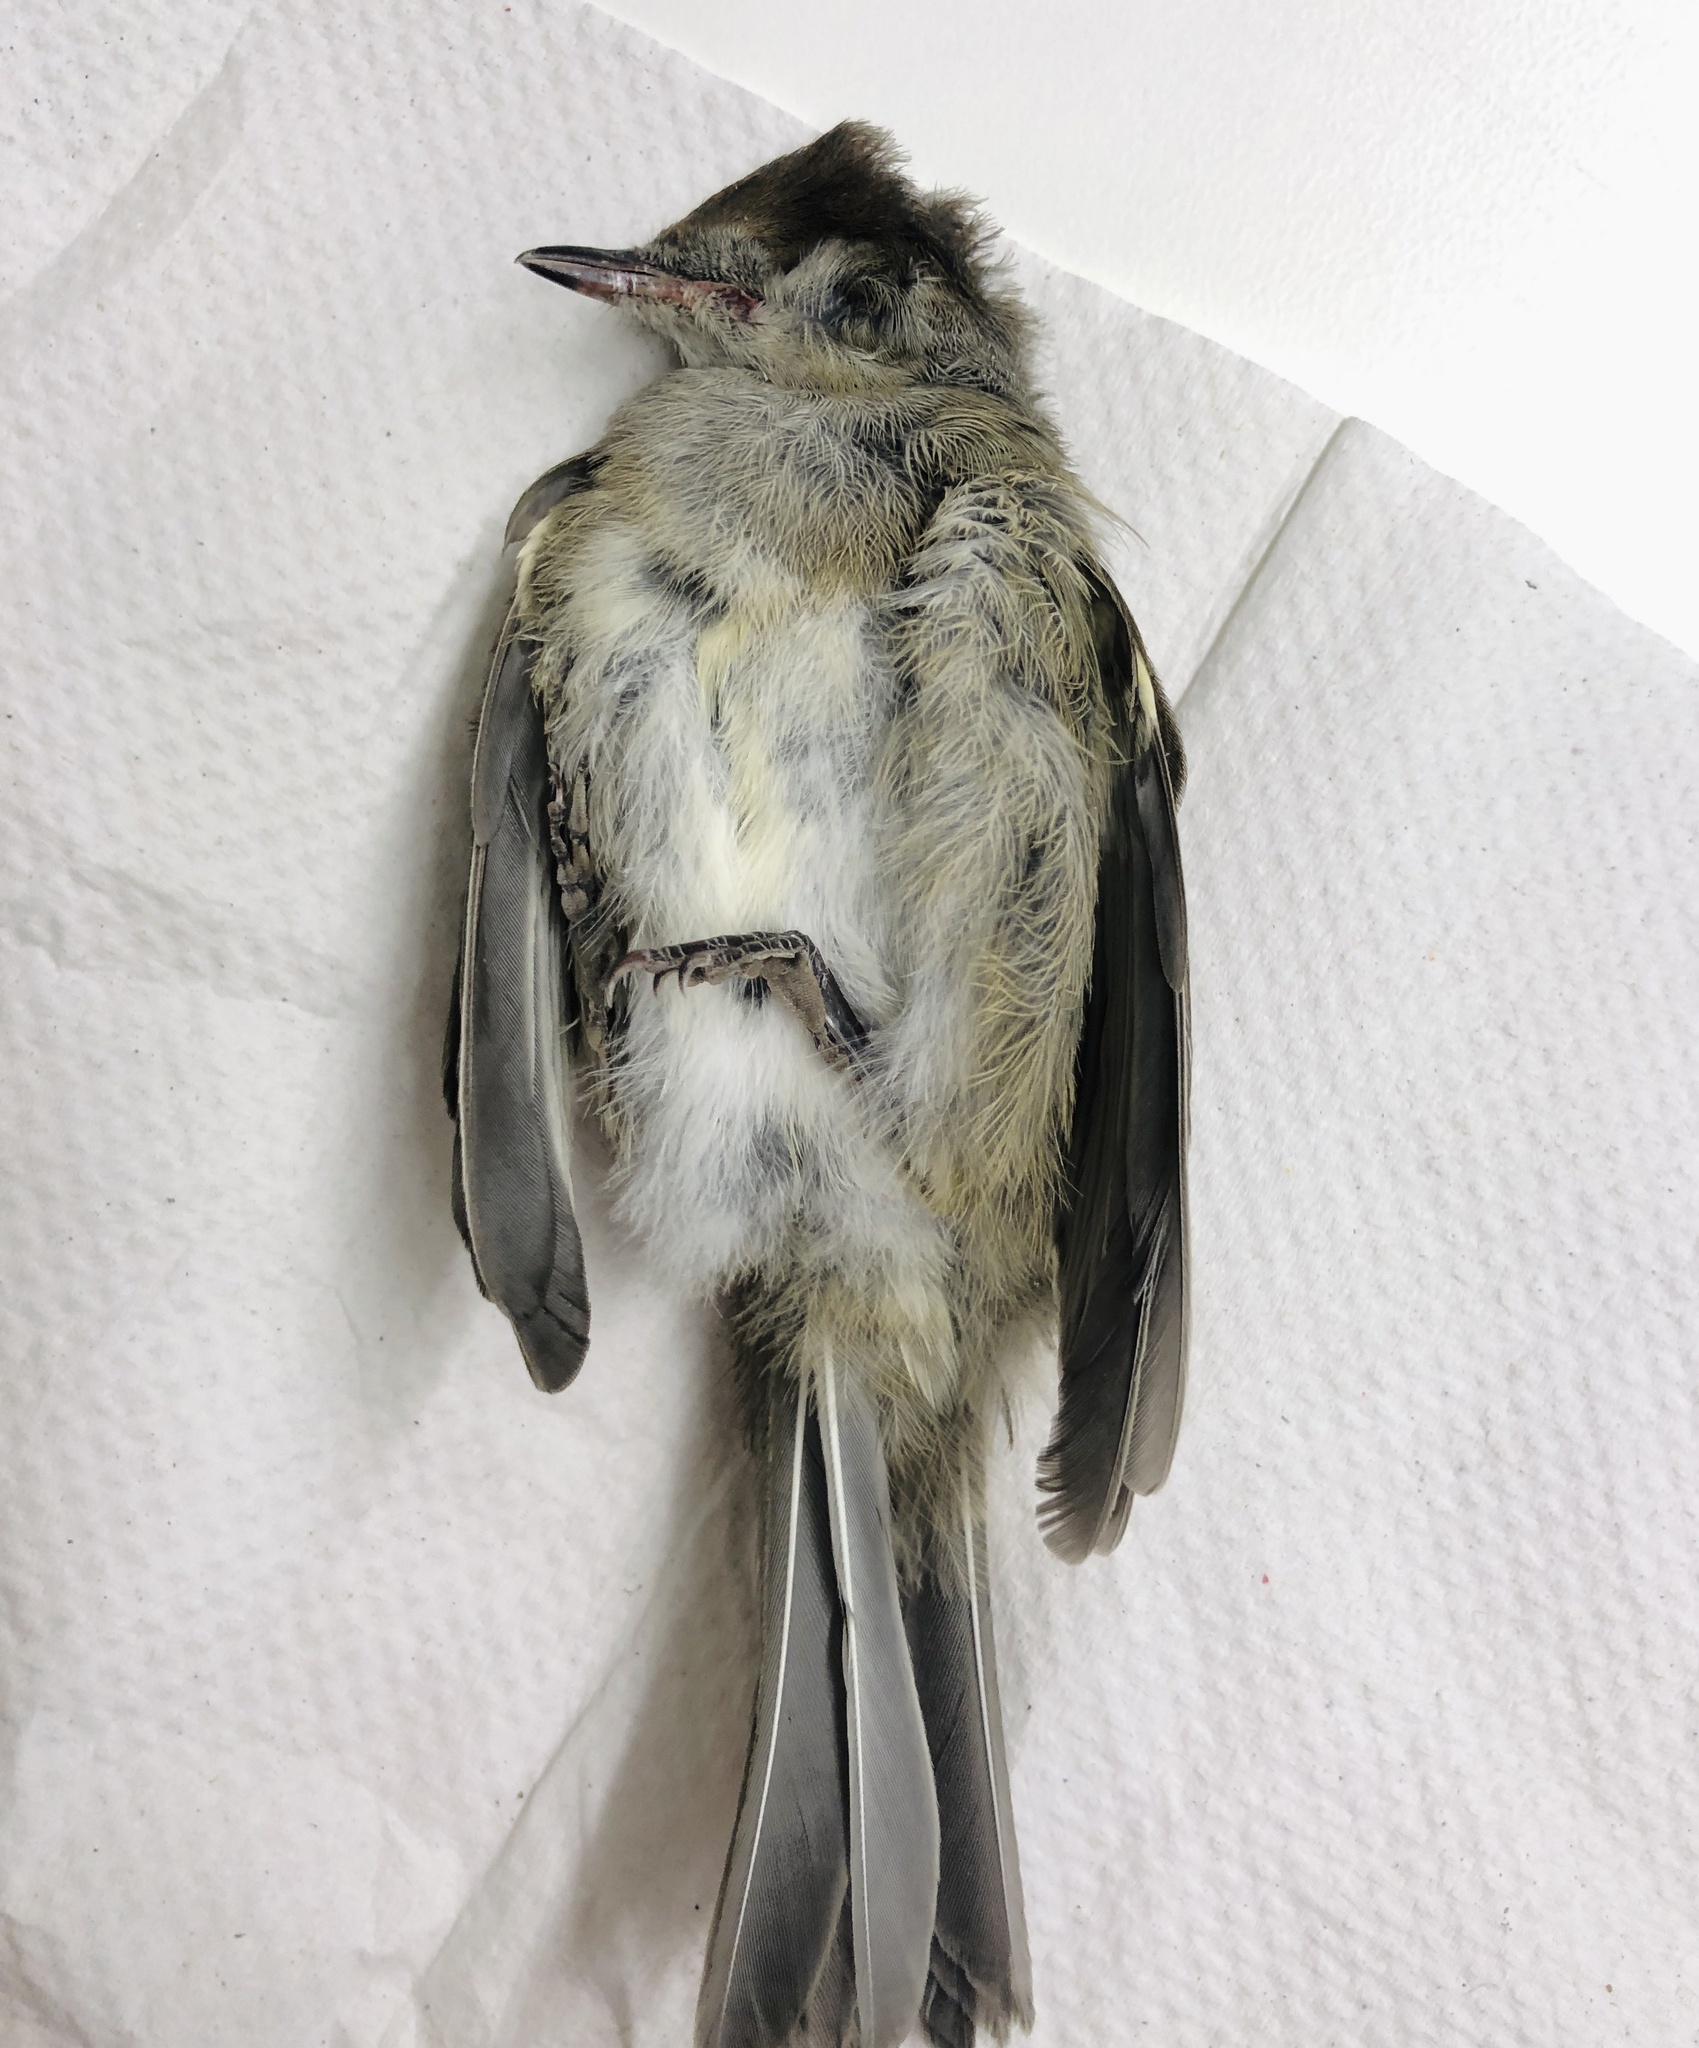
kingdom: Animalia
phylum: Chordata
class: Aves
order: Passeriformes
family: Sylviidae
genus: Sylvia
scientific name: Sylvia atricapilla
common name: Eurasian blackcap
